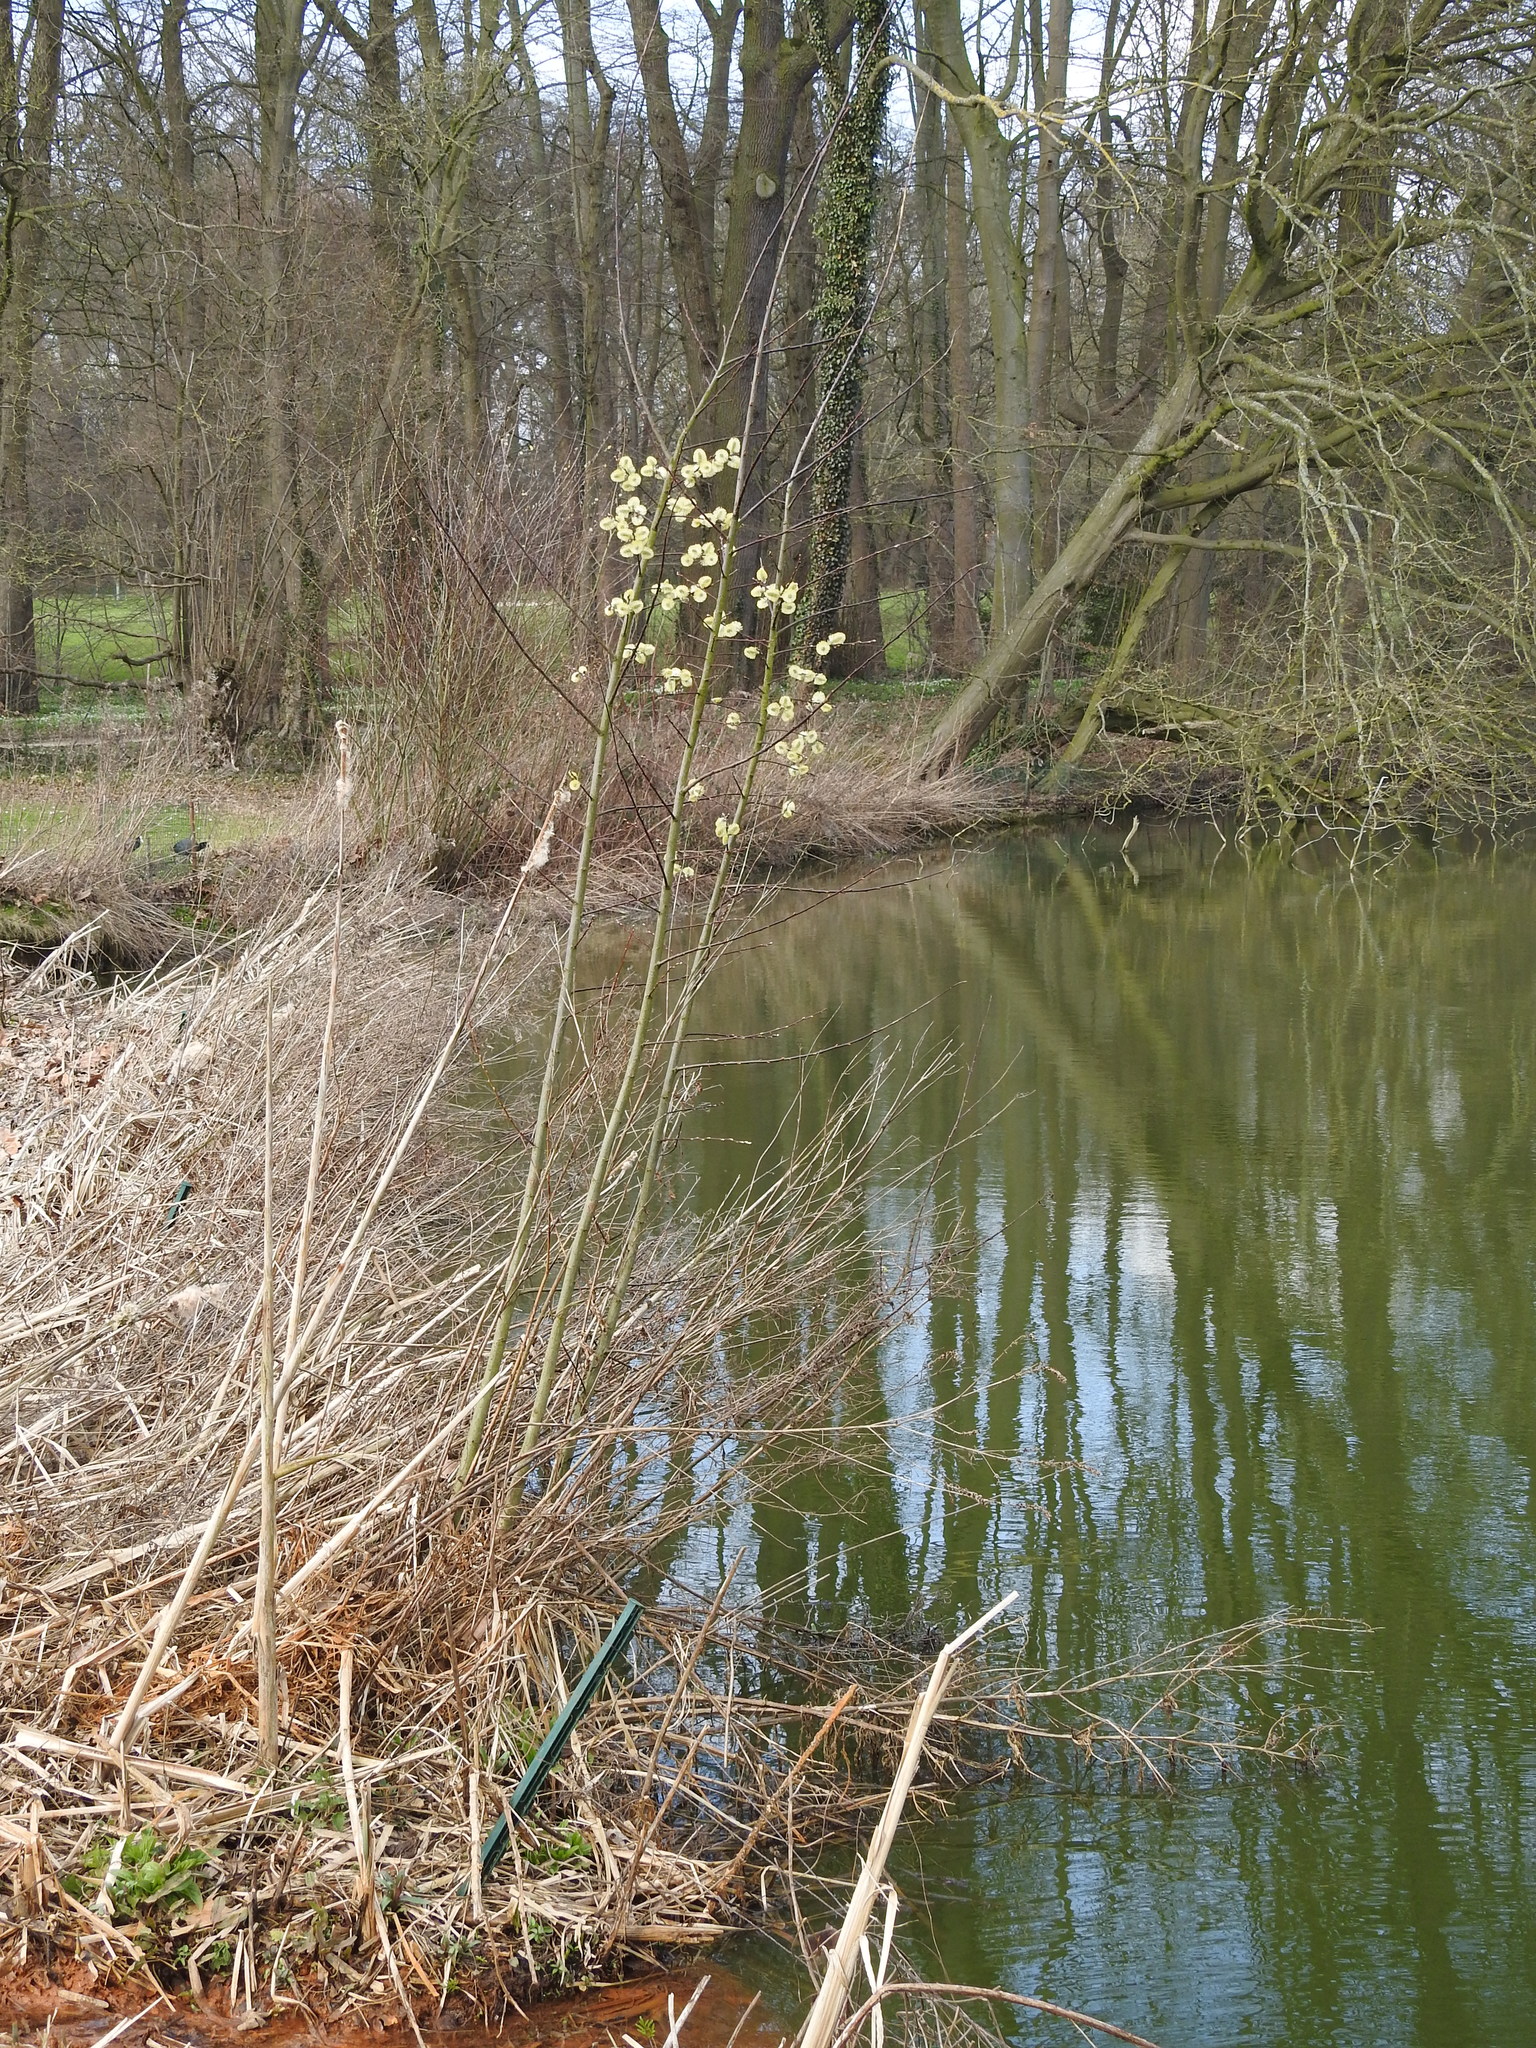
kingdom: Plantae
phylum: Tracheophyta
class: Magnoliopsida
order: Malpighiales
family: Salicaceae
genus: Salix
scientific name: Salix caprea
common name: Goat willow
